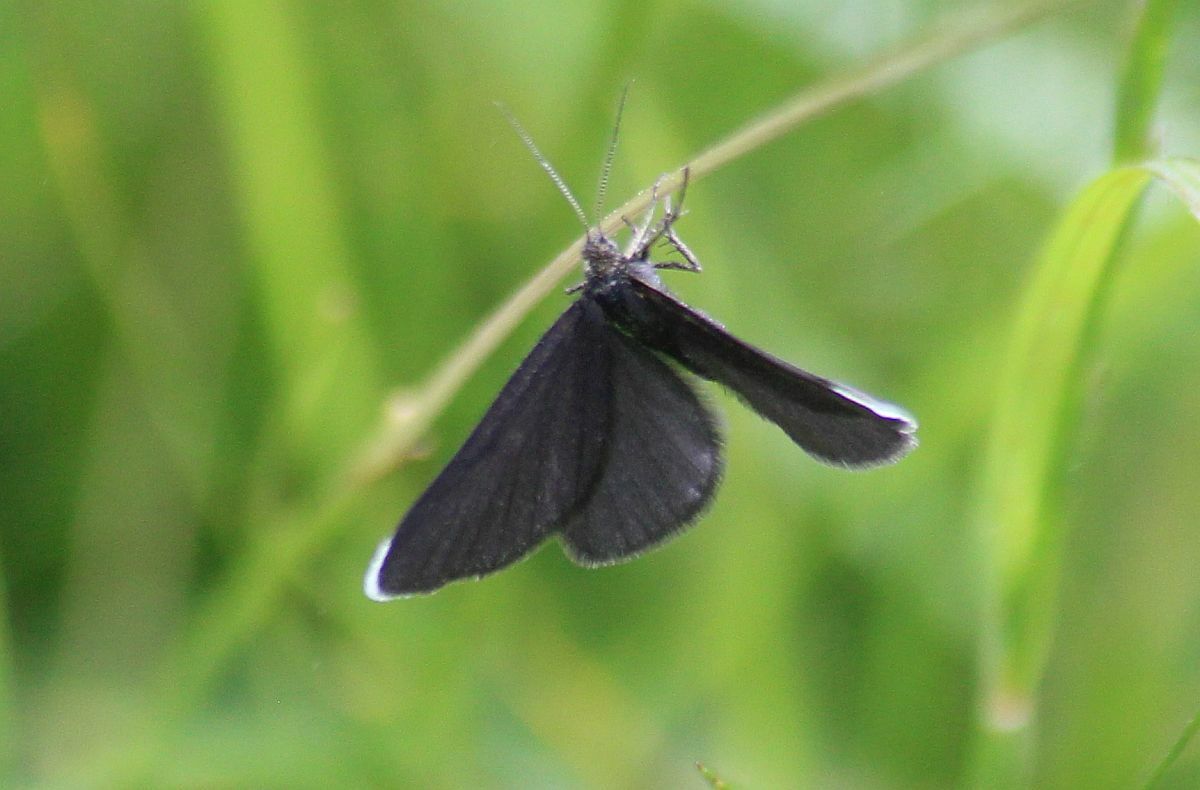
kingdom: Animalia
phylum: Arthropoda
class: Insecta
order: Lepidoptera
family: Geometridae
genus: Odezia
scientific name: Odezia atrata
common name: Chimney sweeper
